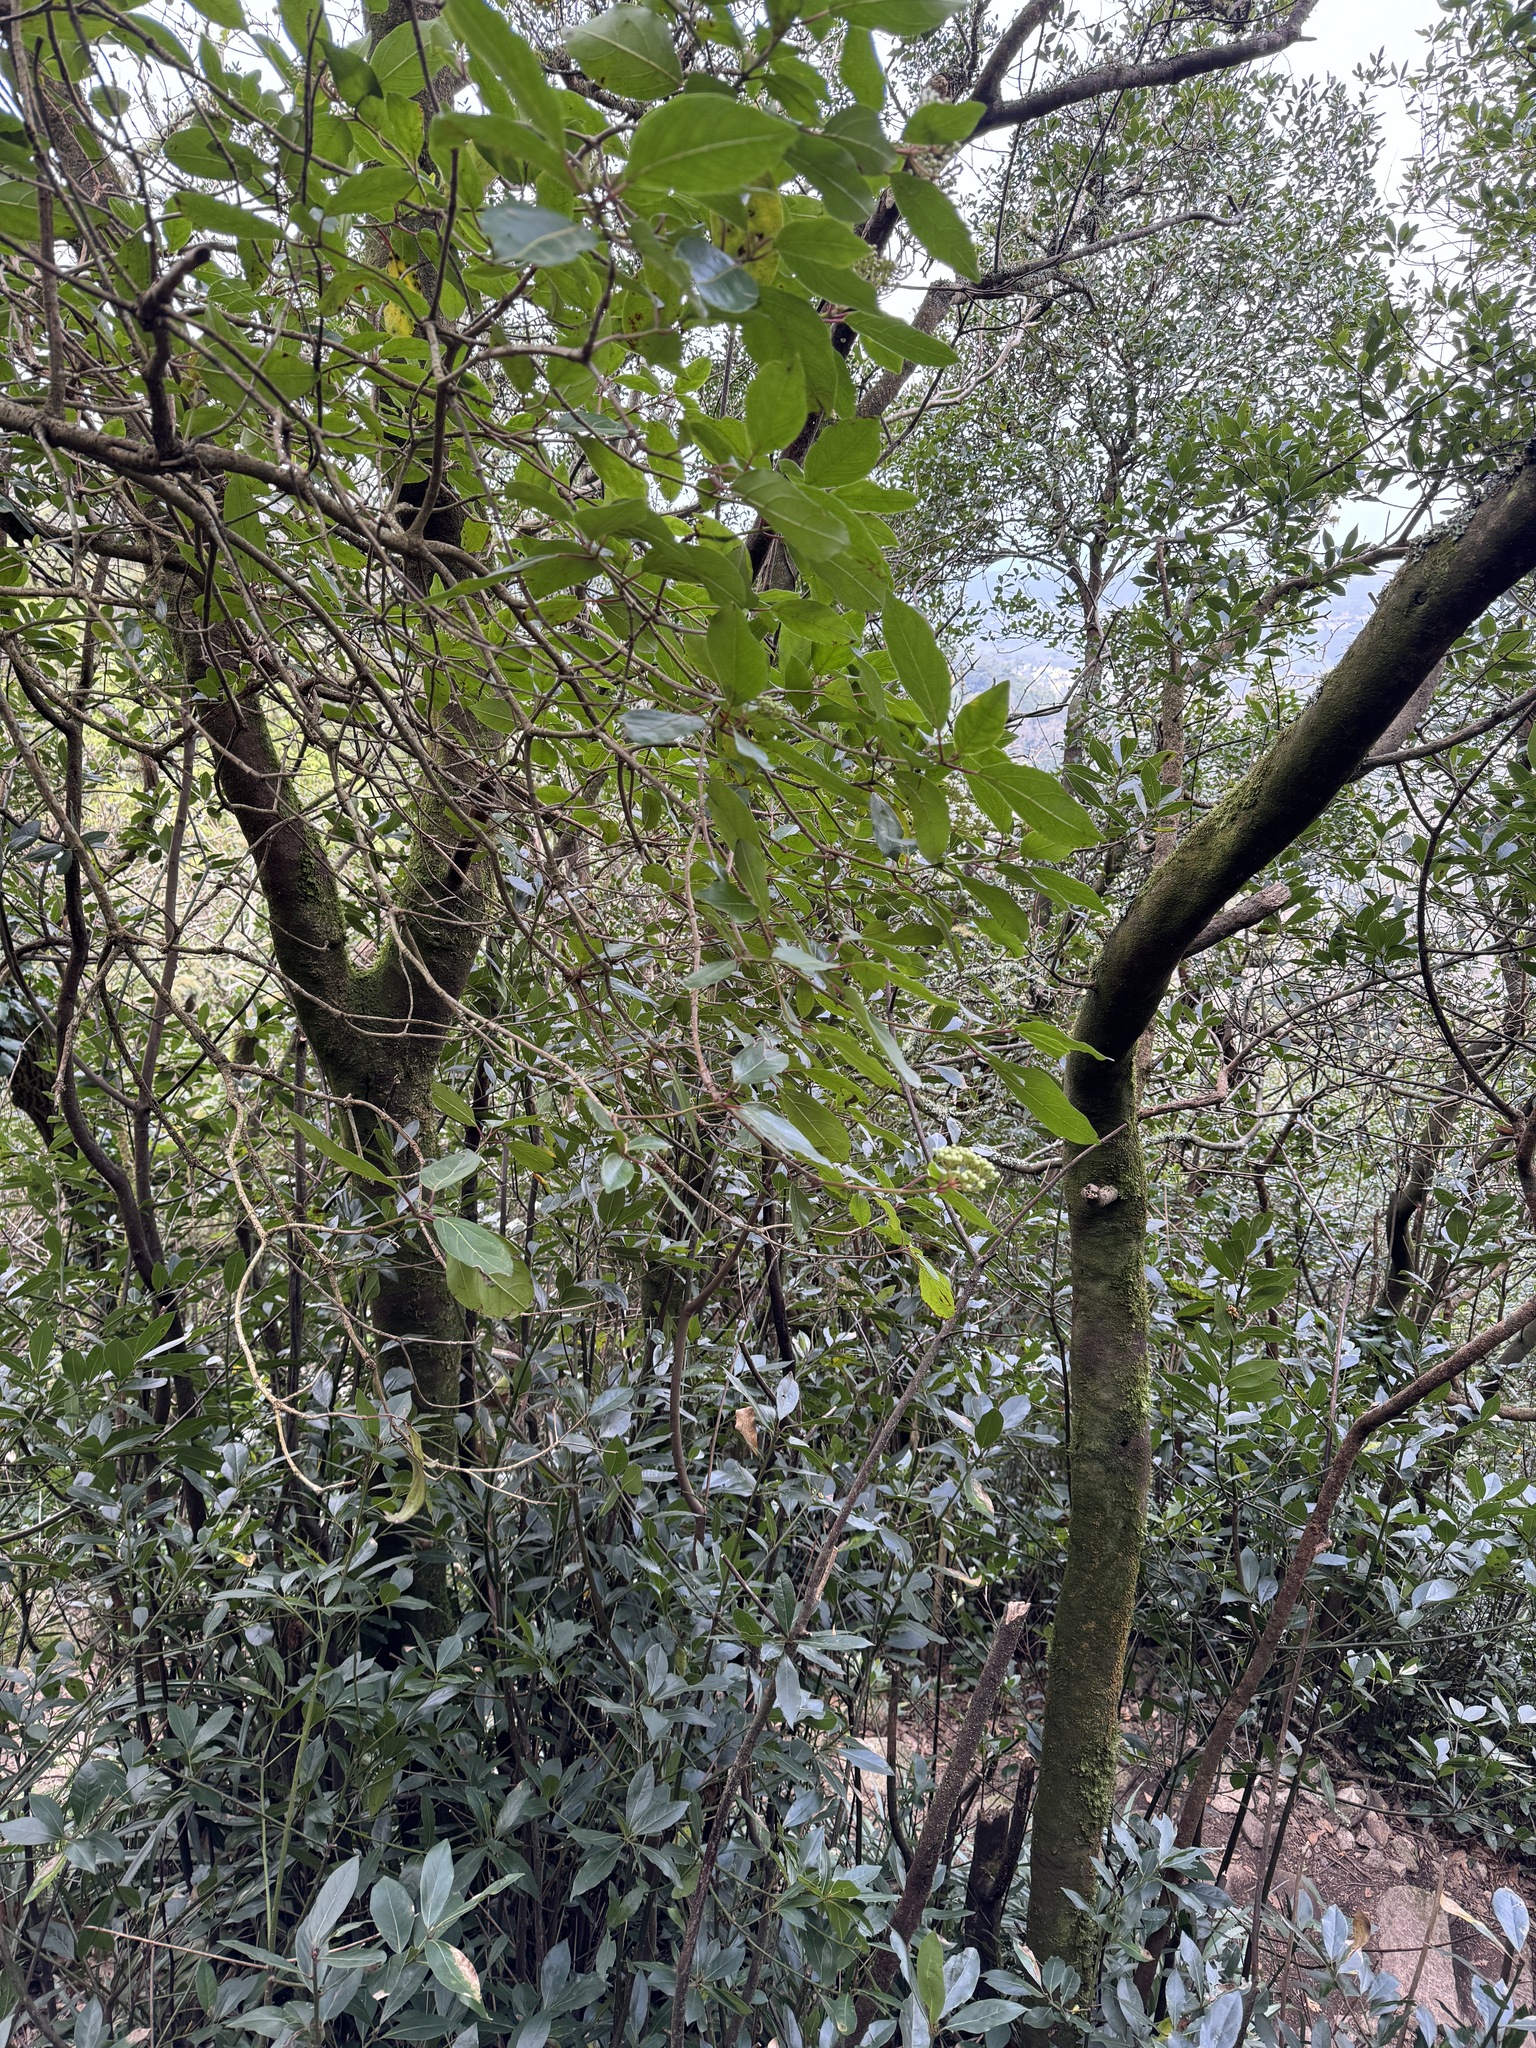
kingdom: Plantae
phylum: Tracheophyta
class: Magnoliopsida
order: Dipsacales
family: Viburnaceae
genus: Viburnum
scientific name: Viburnum tinus
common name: Laurustinus
